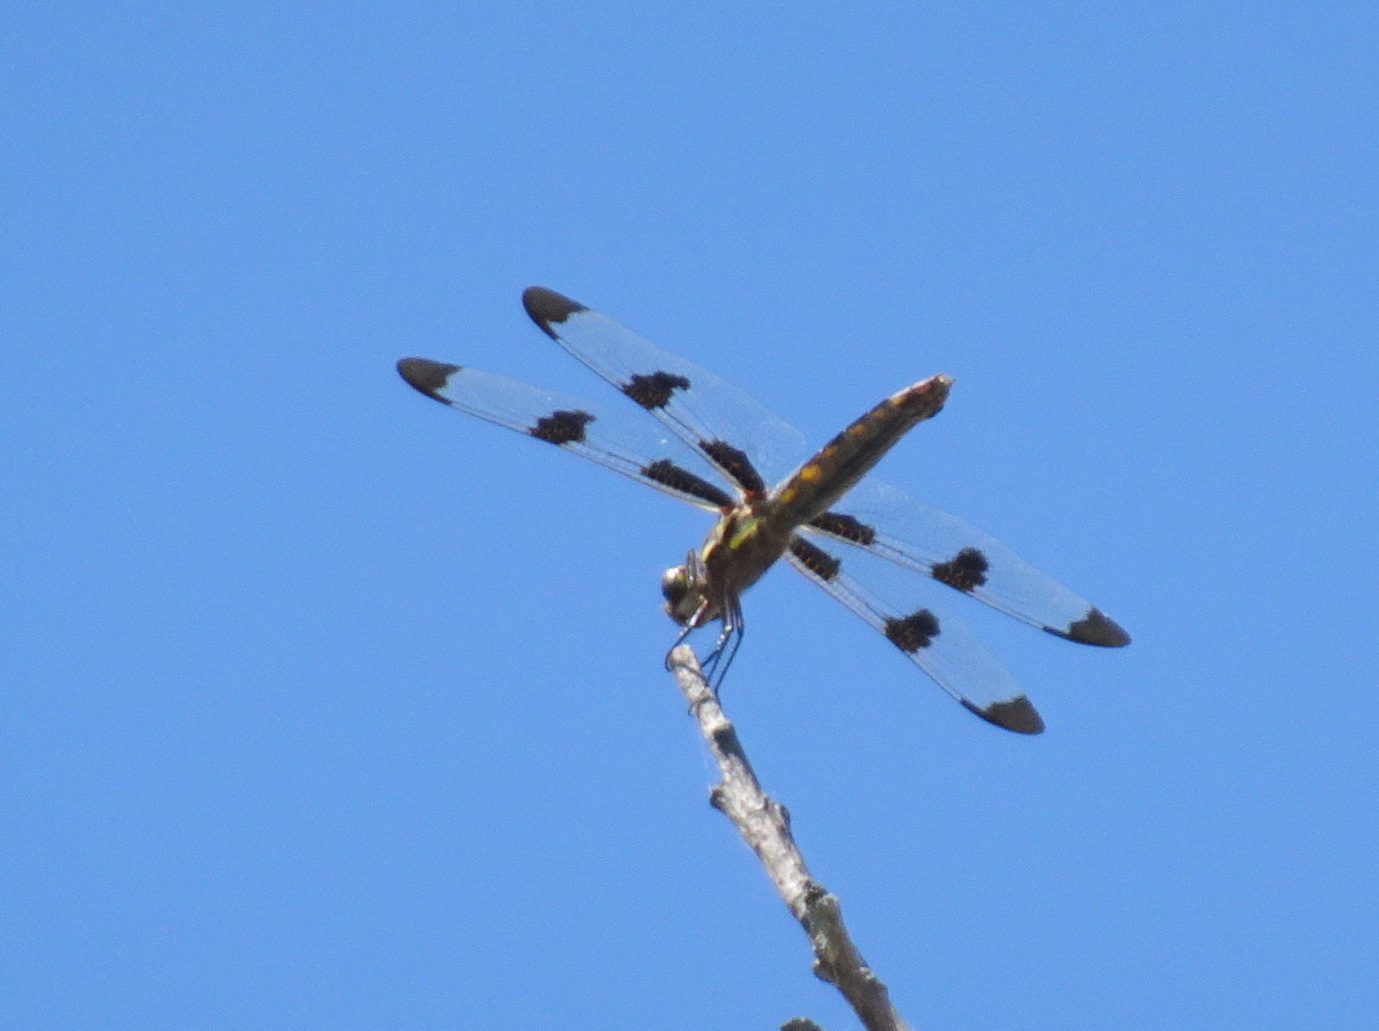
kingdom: Animalia
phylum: Arthropoda
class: Insecta
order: Odonata
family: Libellulidae
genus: Libellula
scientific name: Libellula pulchella
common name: Twelve-spotted skimmer
